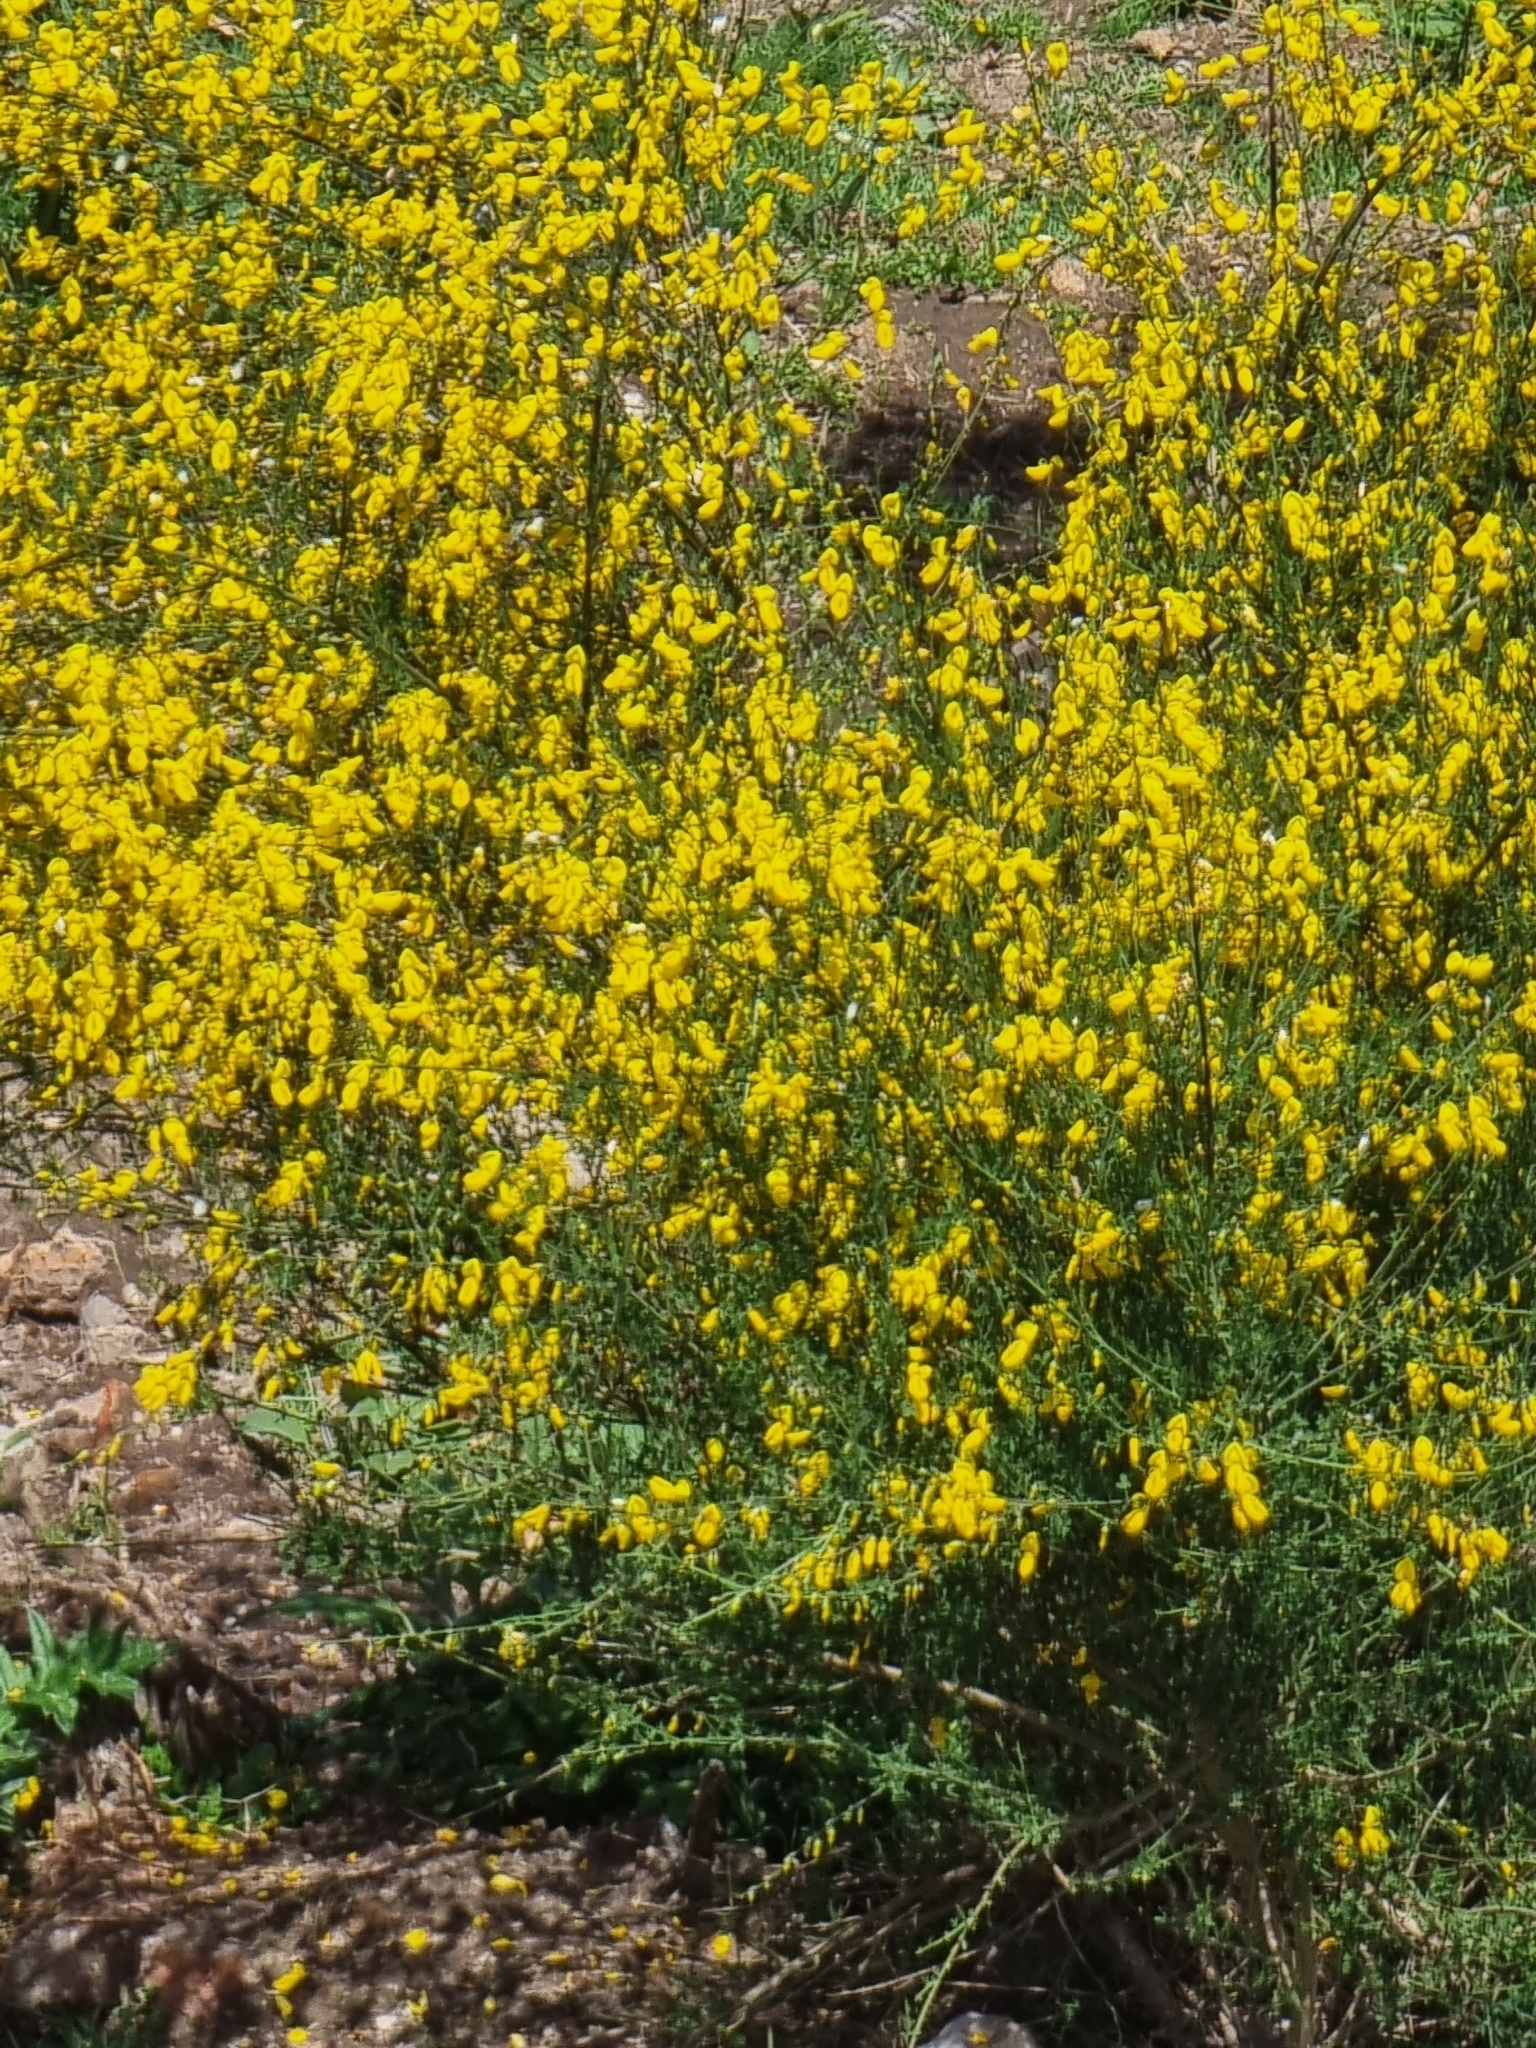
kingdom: Plantae
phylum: Tracheophyta
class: Magnoliopsida
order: Fabales
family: Fabaceae
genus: Cytisus
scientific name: Cytisus scoparius
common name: Scotch broom
